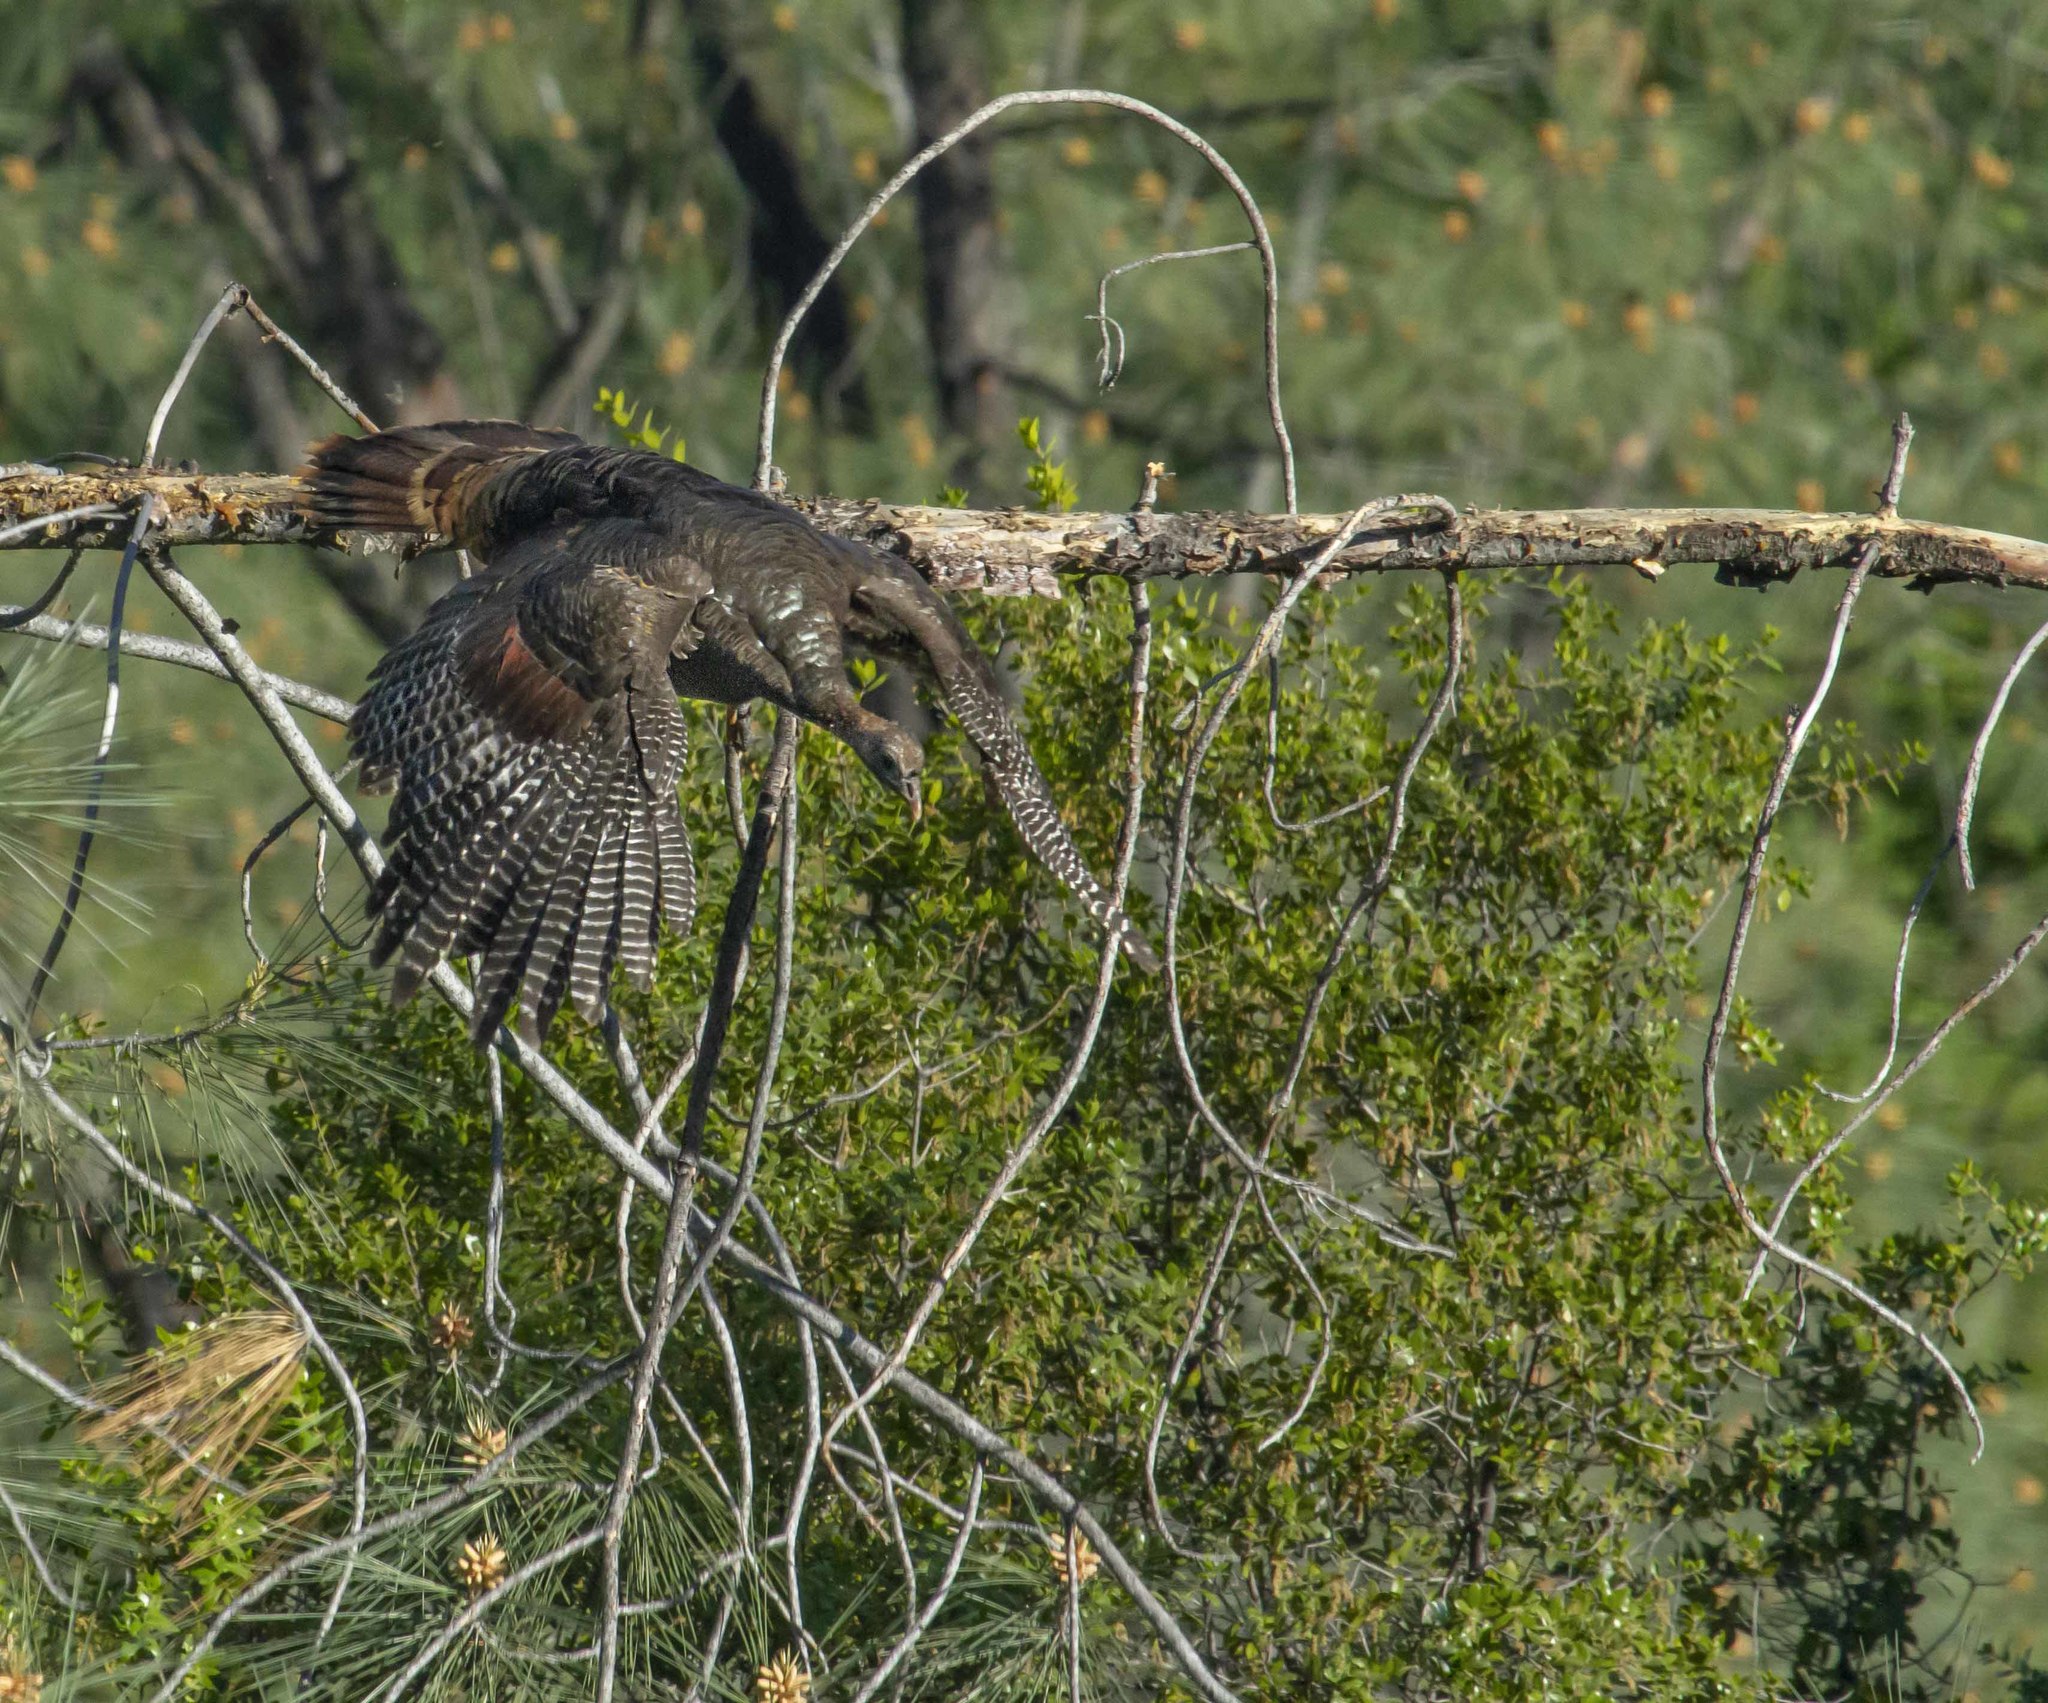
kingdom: Animalia
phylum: Chordata
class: Aves
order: Galliformes
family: Phasianidae
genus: Meleagris
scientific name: Meleagris gallopavo
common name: Wild turkey
